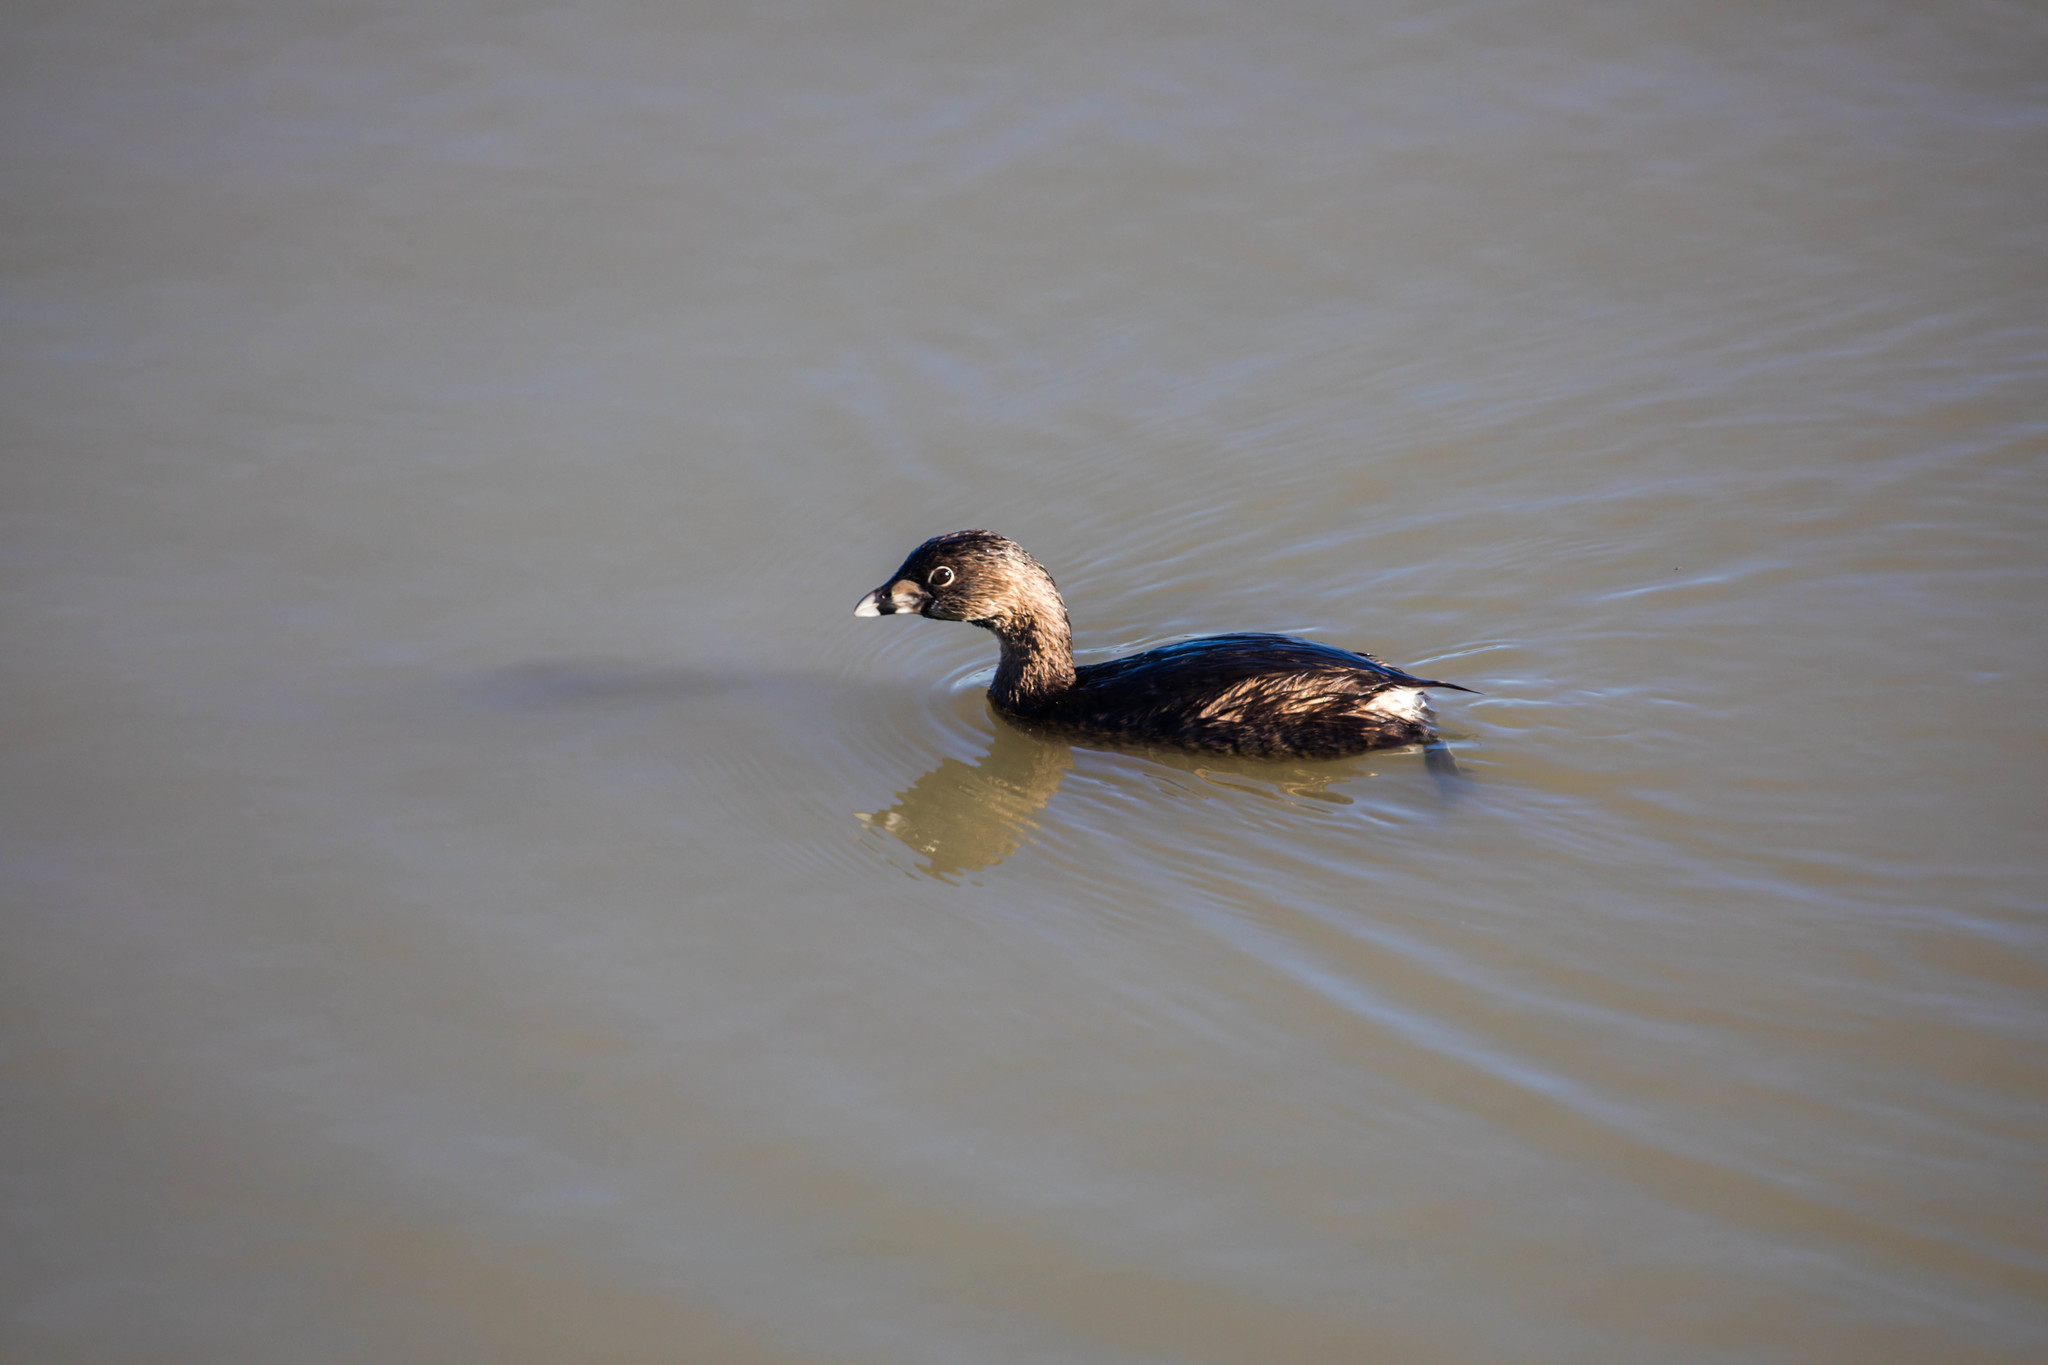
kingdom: Animalia
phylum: Chordata
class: Aves
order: Podicipediformes
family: Podicipedidae
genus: Podilymbus
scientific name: Podilymbus podiceps
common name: Pied-billed grebe
